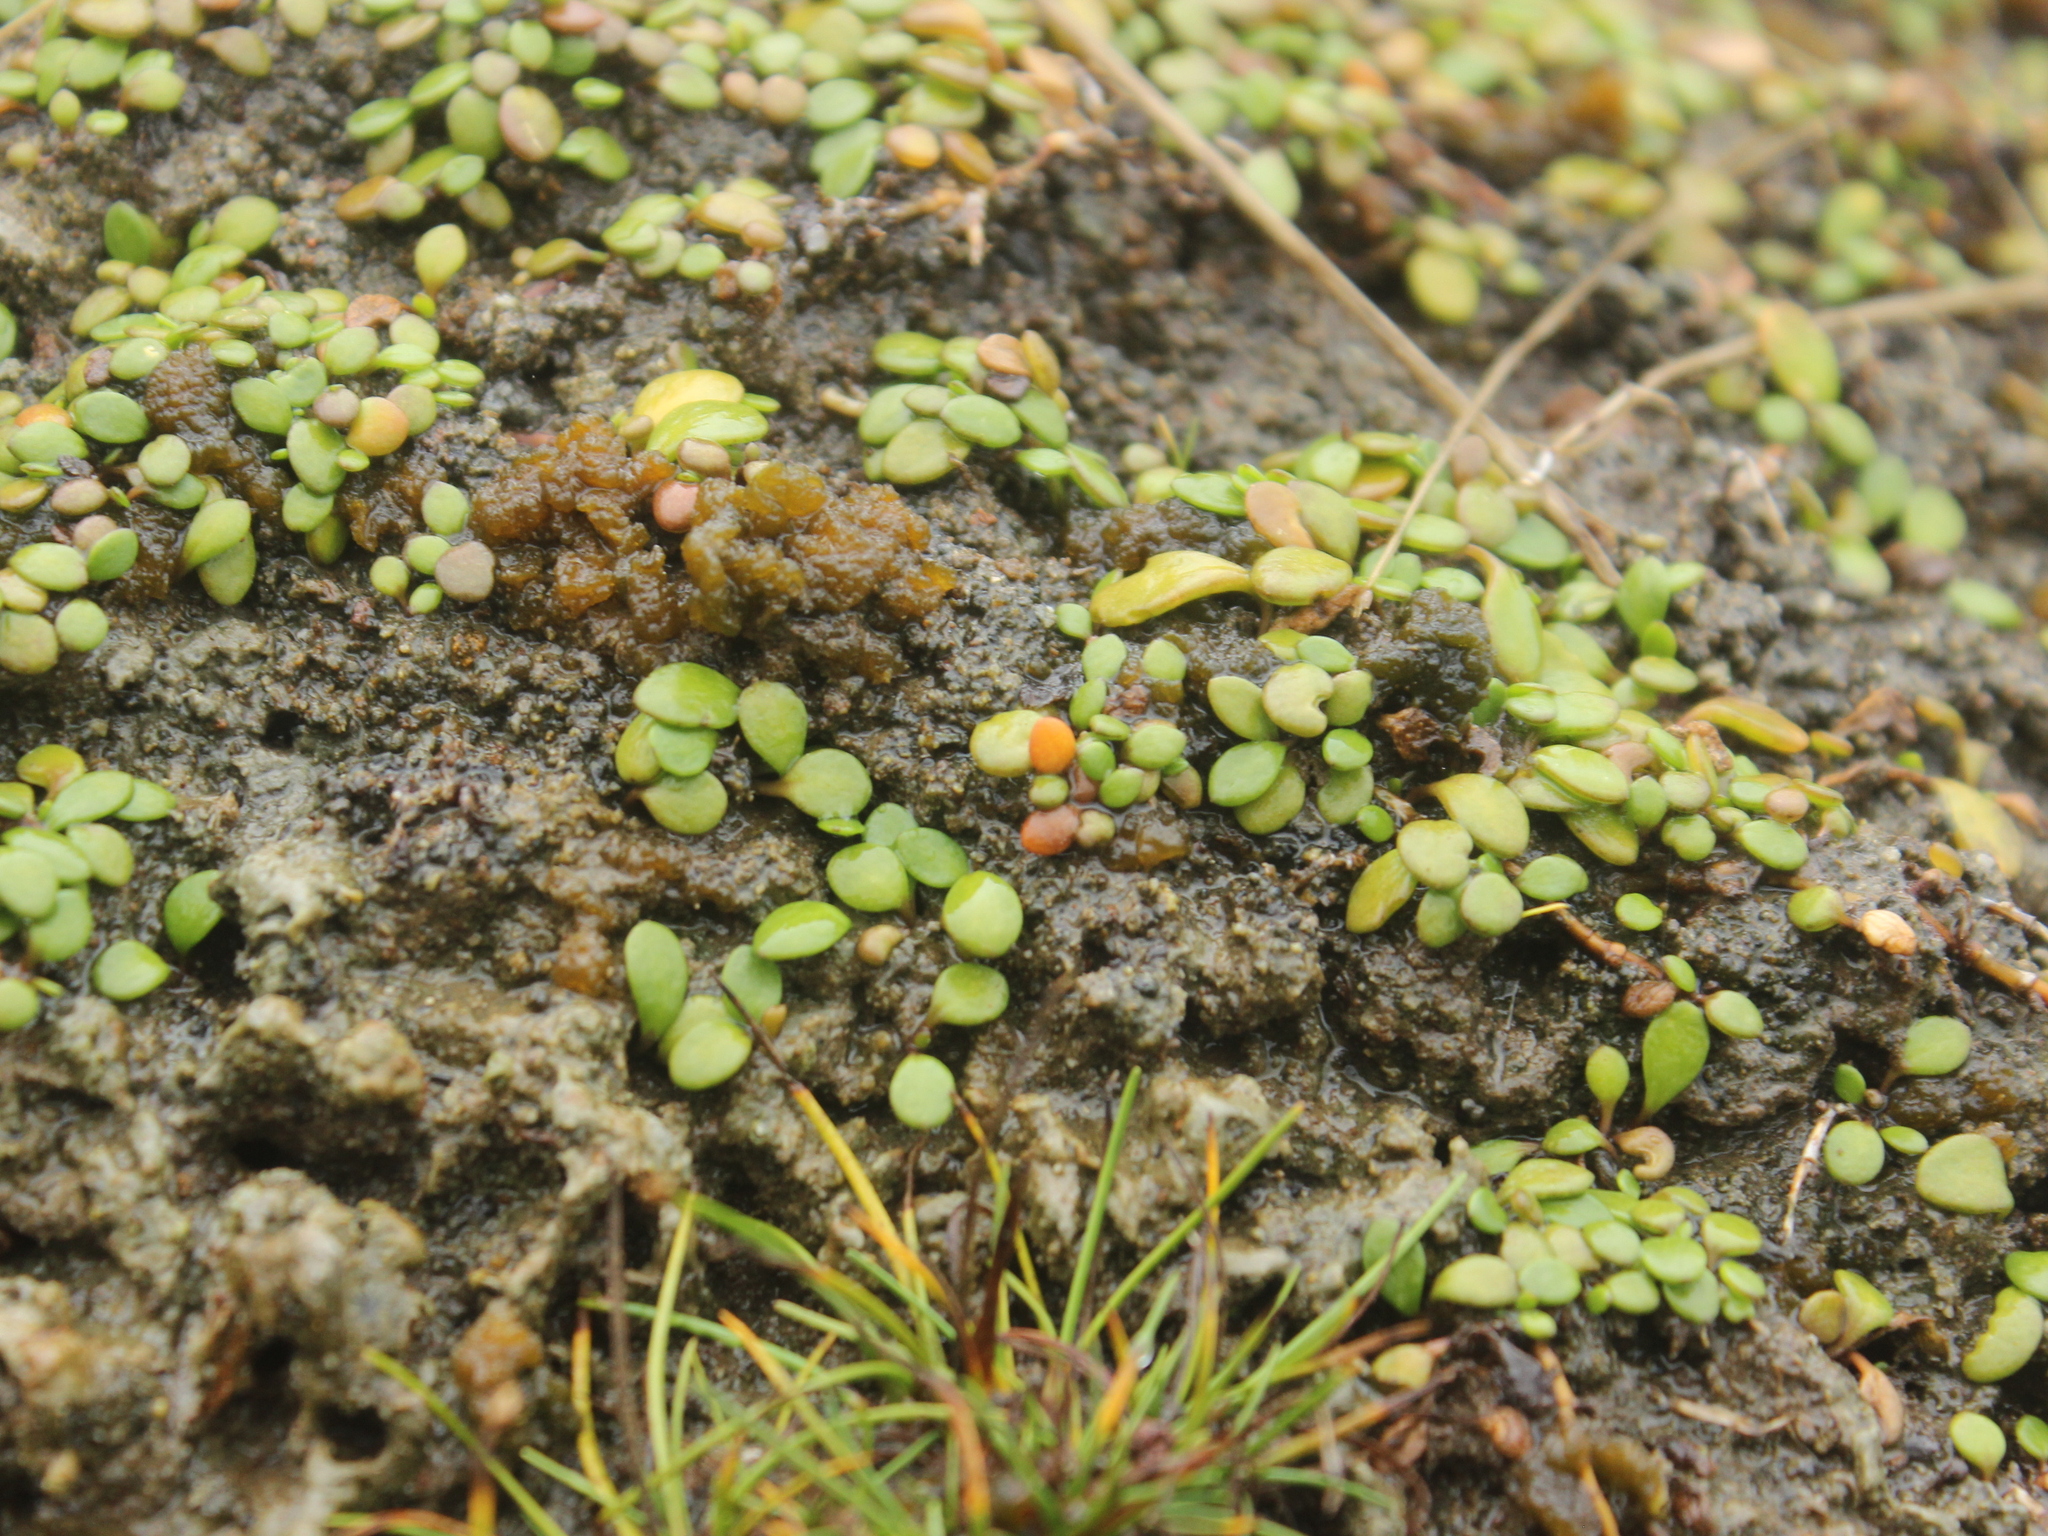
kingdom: Plantae
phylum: Tracheophyta
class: Magnoliopsida
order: Asterales
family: Goodeniaceae
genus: Goodenia
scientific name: Goodenia radicans
